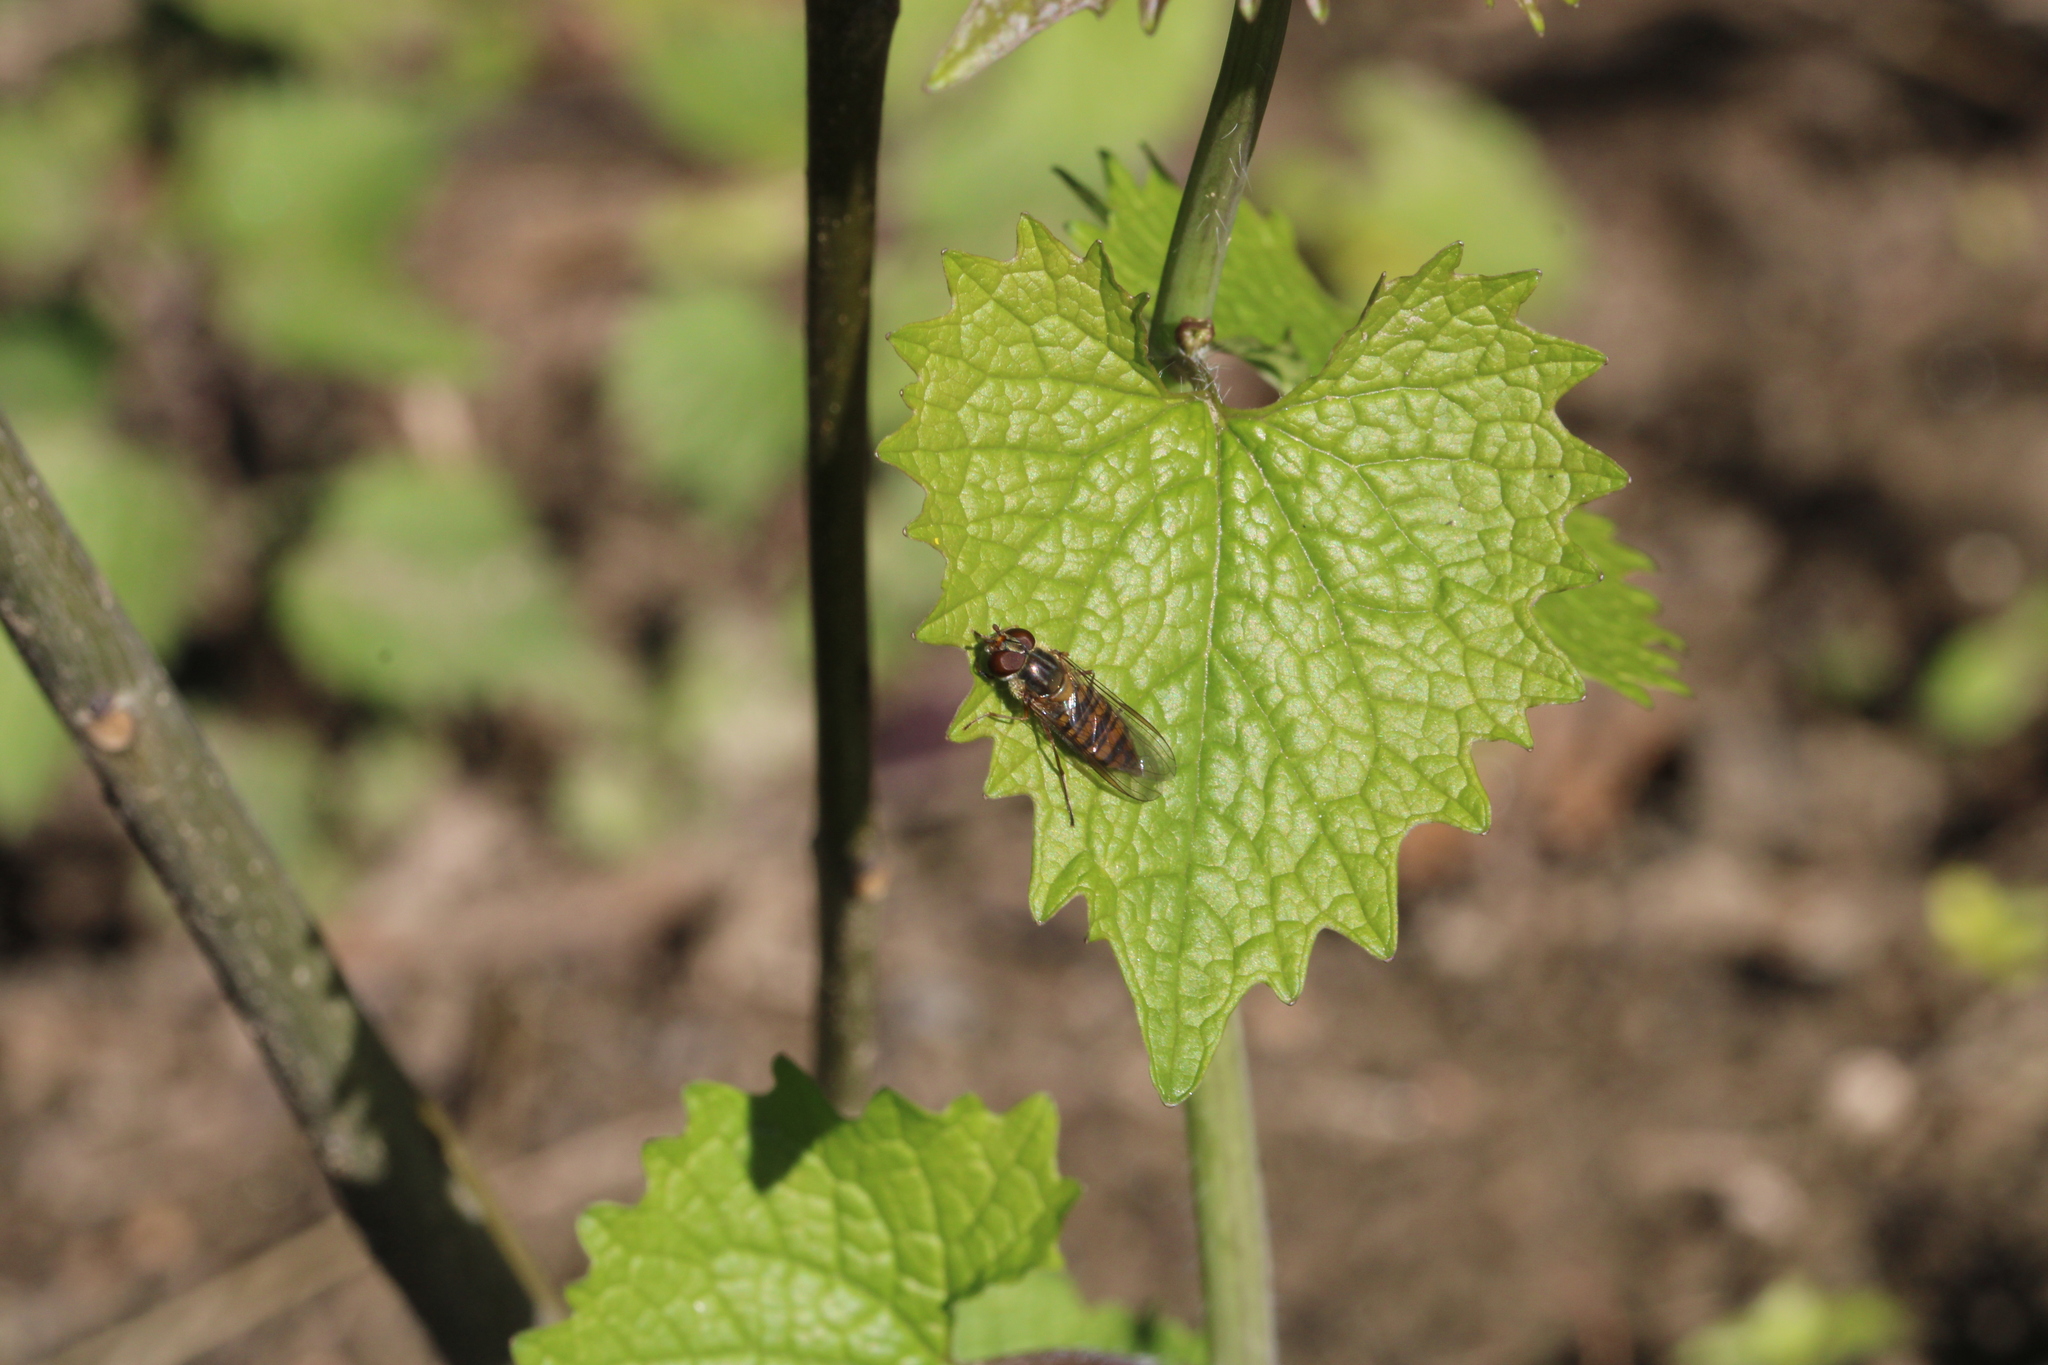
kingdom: Animalia
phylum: Arthropoda
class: Insecta
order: Diptera
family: Syrphidae
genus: Episyrphus
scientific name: Episyrphus balteatus
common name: Marmalade hoverfly
